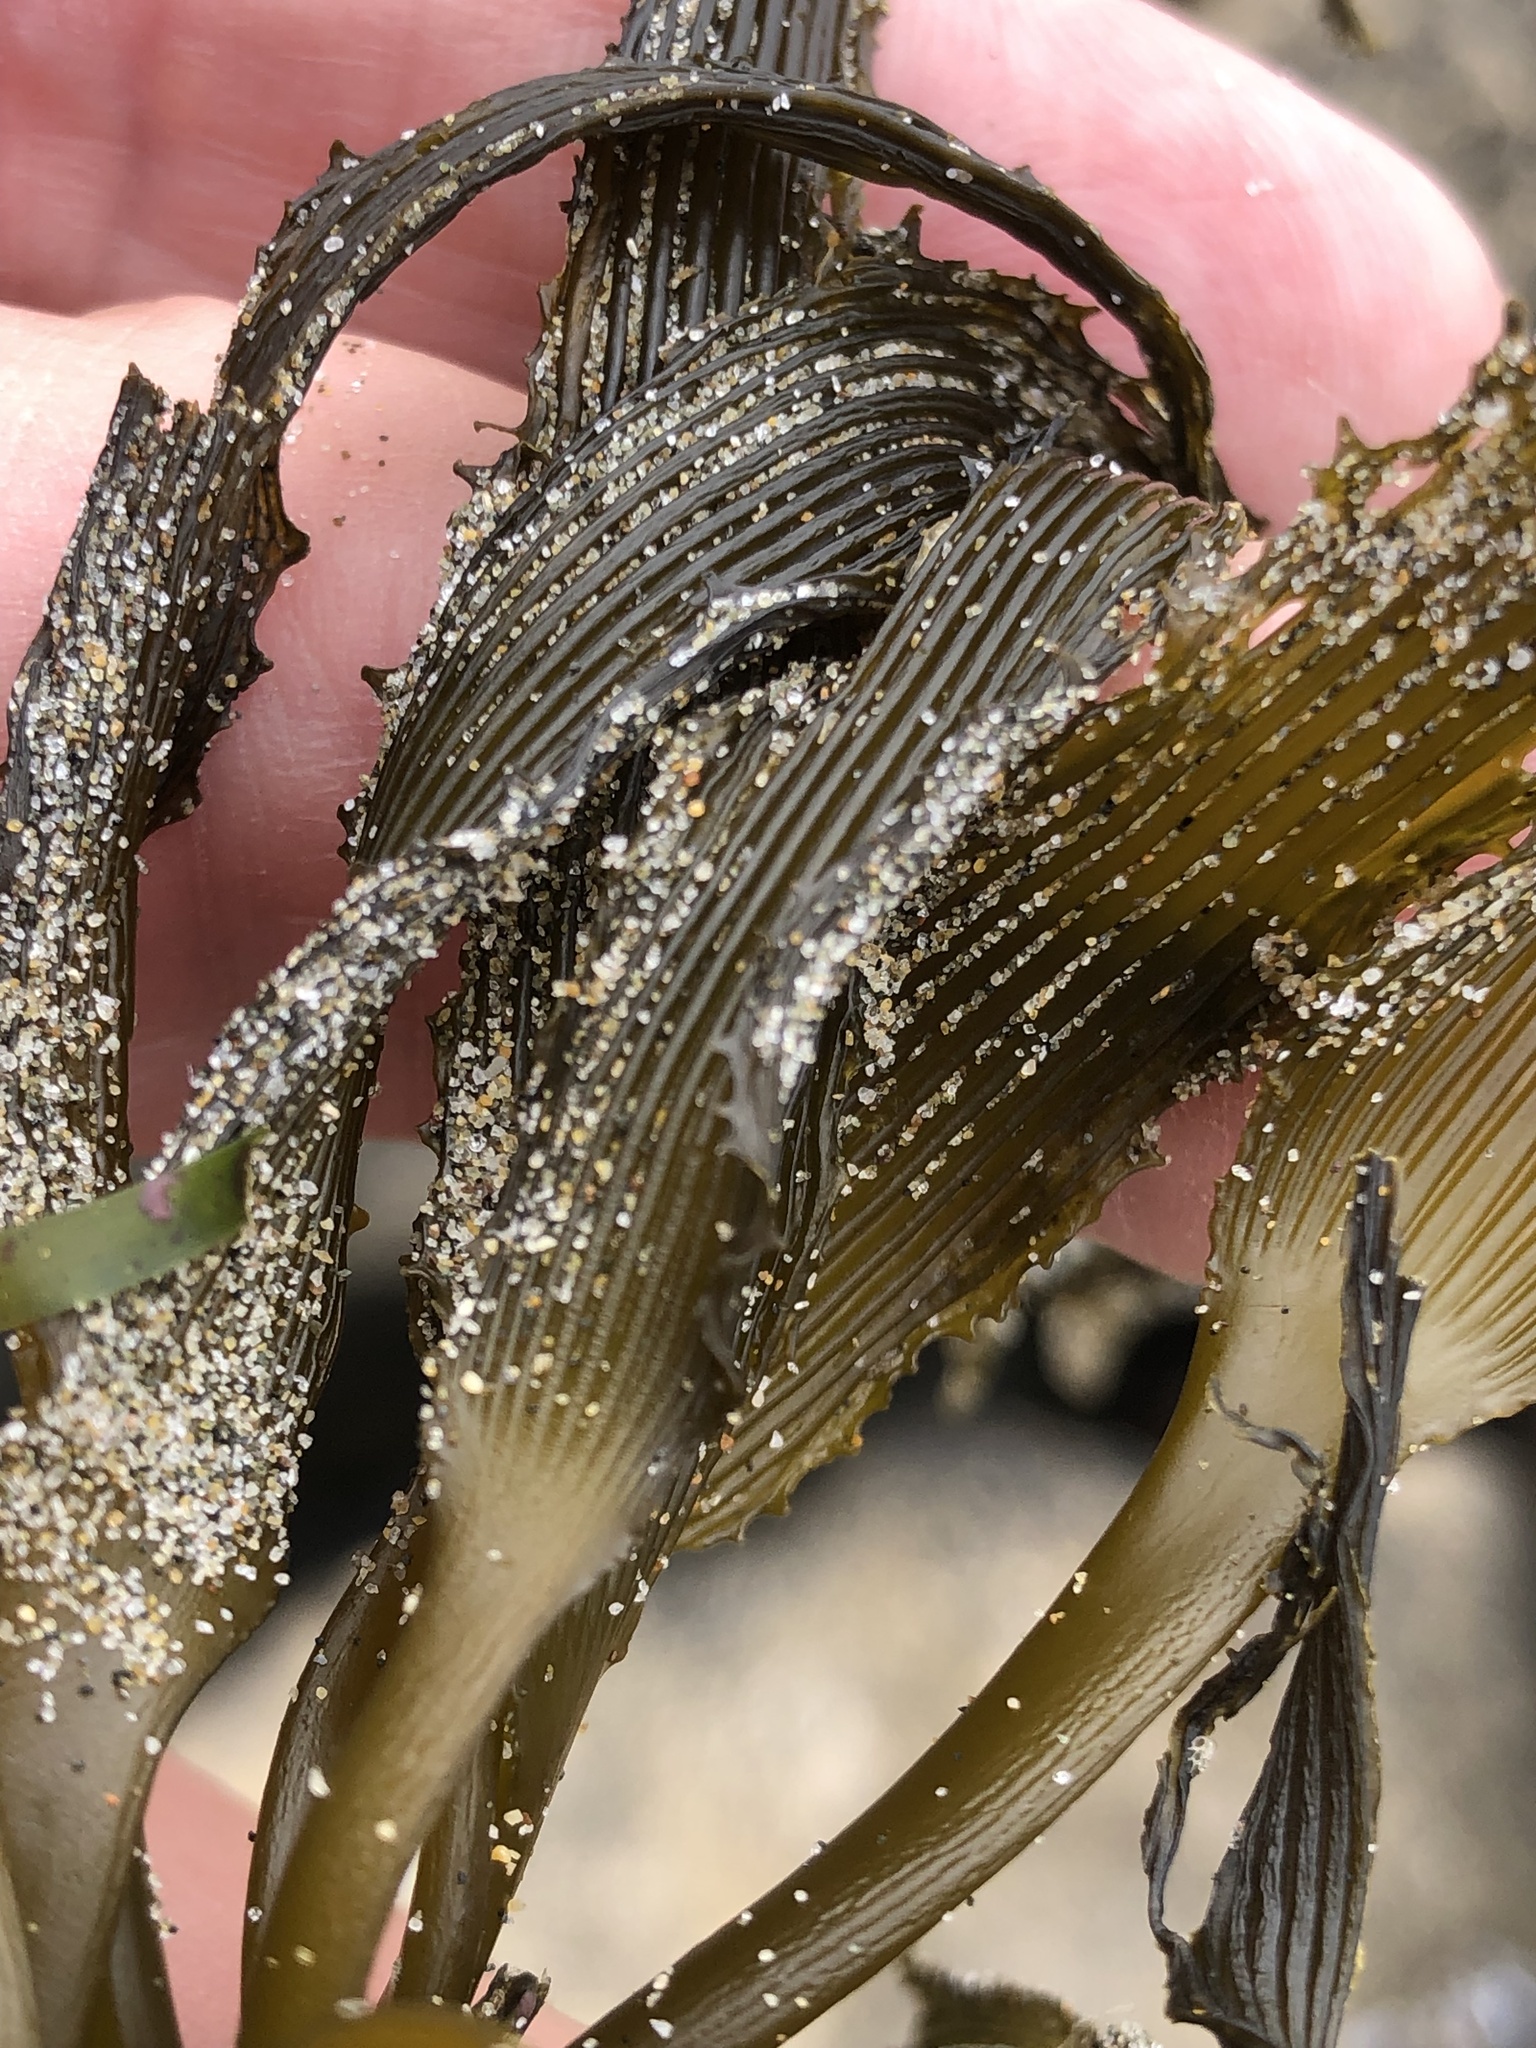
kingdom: Chromista
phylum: Ochrophyta
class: Phaeophyceae
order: Laminariales
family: Laminariaceae
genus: Postelsia
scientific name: Postelsia palmiformis
